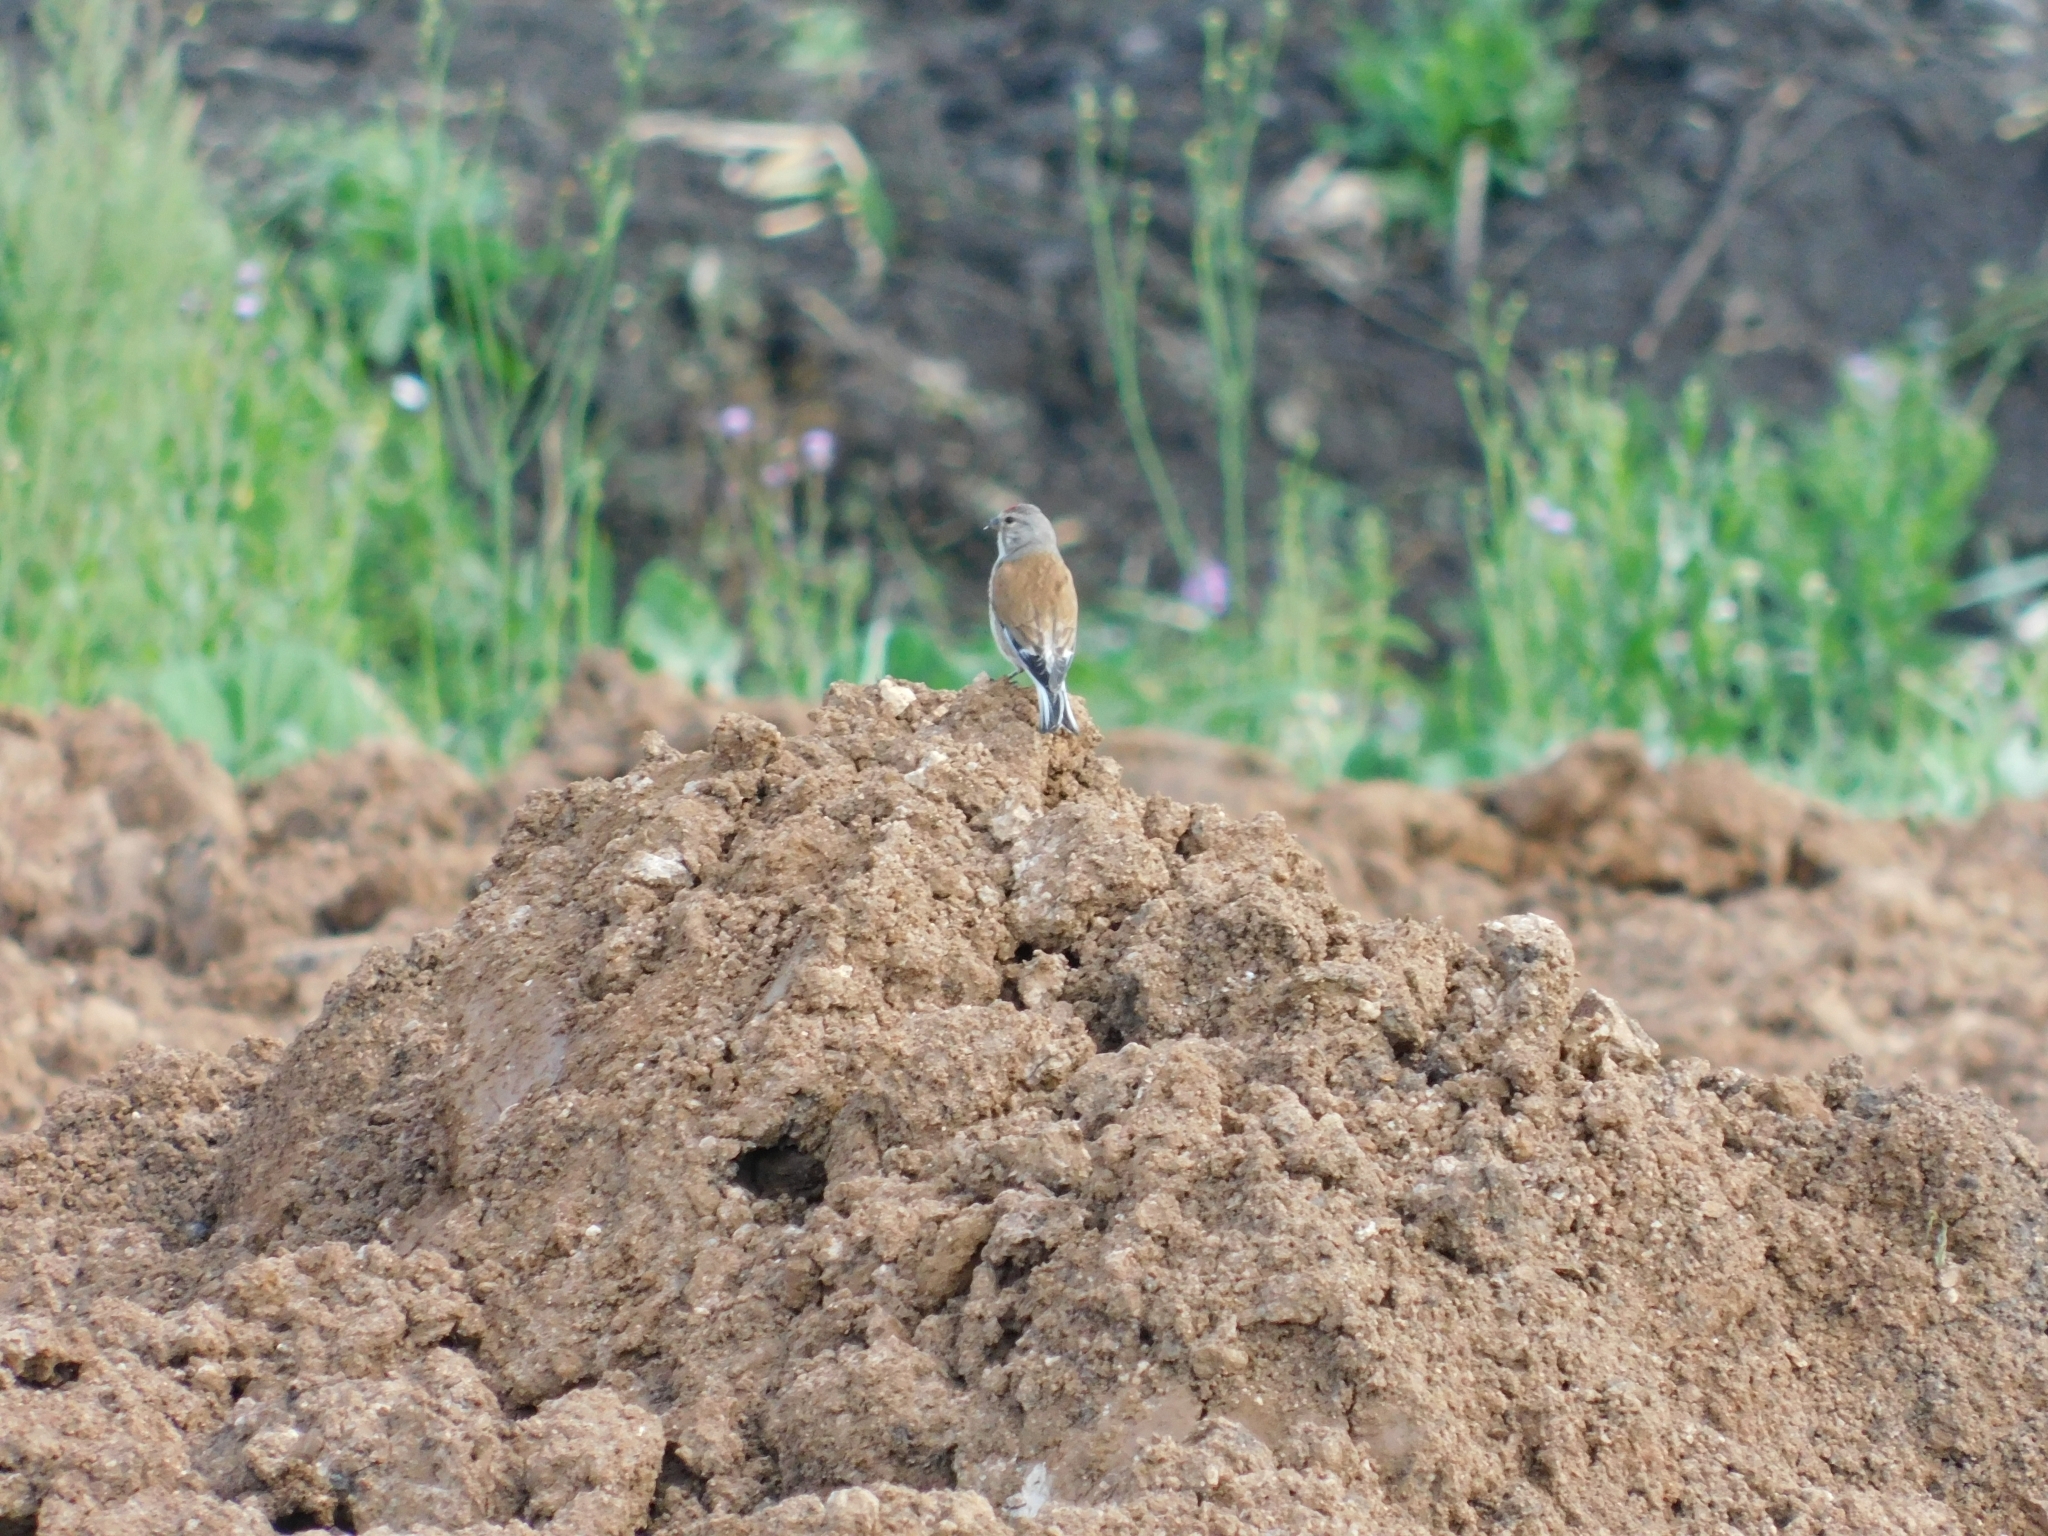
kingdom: Animalia
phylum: Chordata
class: Aves
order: Passeriformes
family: Fringillidae
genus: Linaria
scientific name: Linaria cannabina
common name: Common linnet
